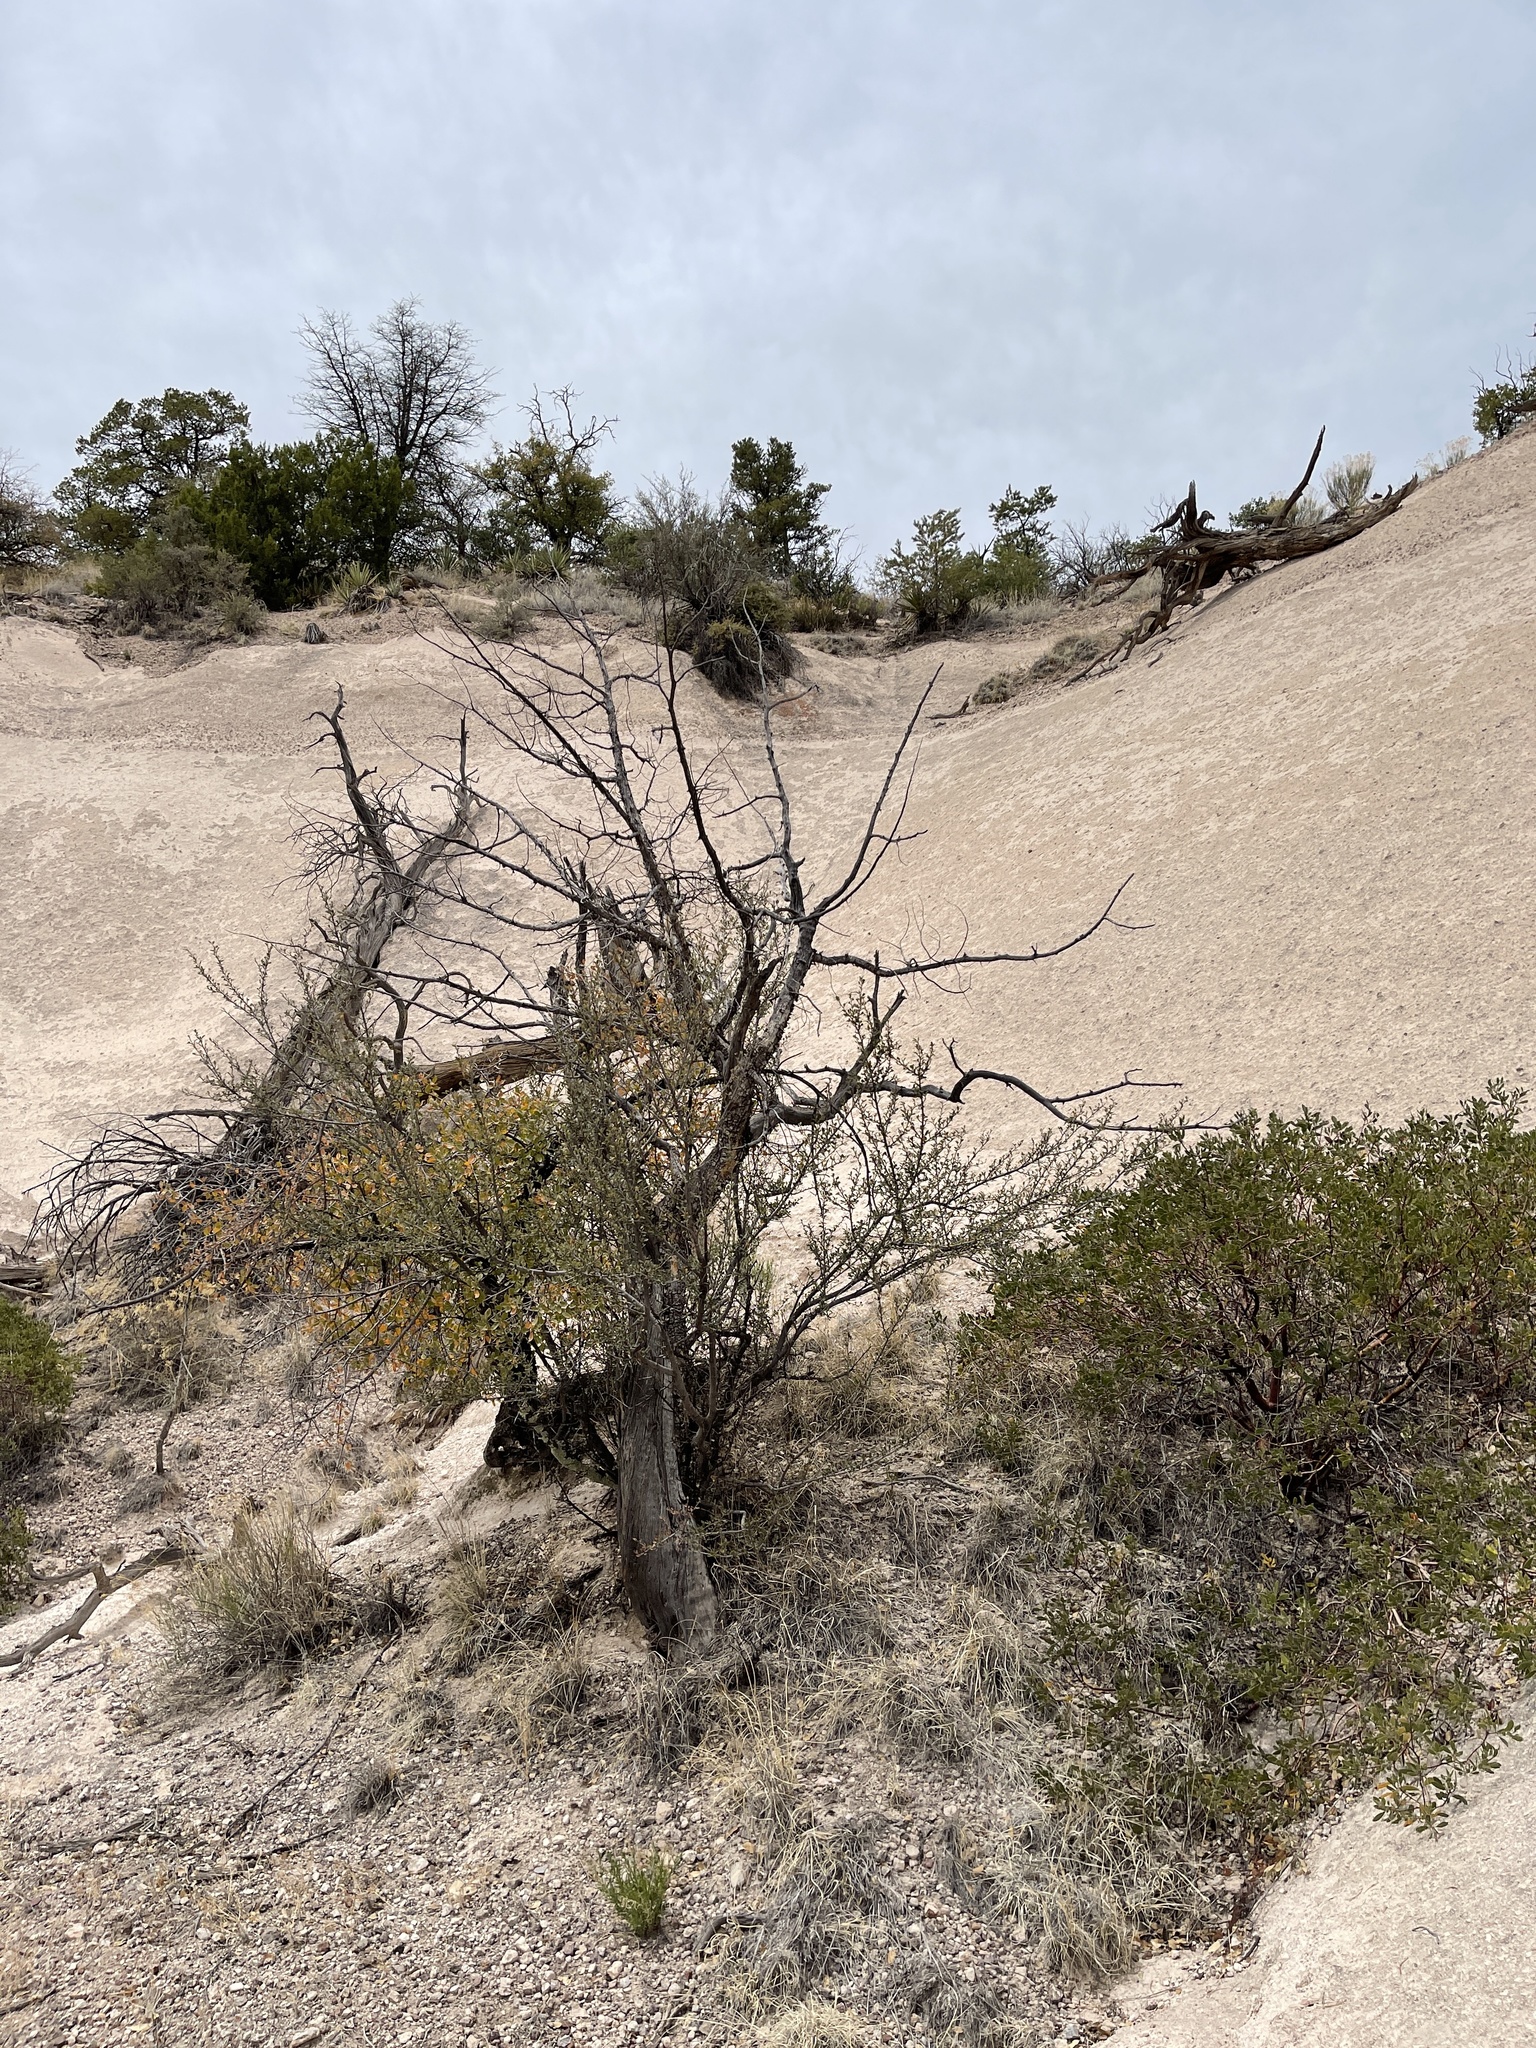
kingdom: Plantae
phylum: Tracheophyta
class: Magnoliopsida
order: Rosales
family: Rosaceae
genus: Cercocarpus
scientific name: Cercocarpus breviflorus
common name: Wright's mountain-mahogany
